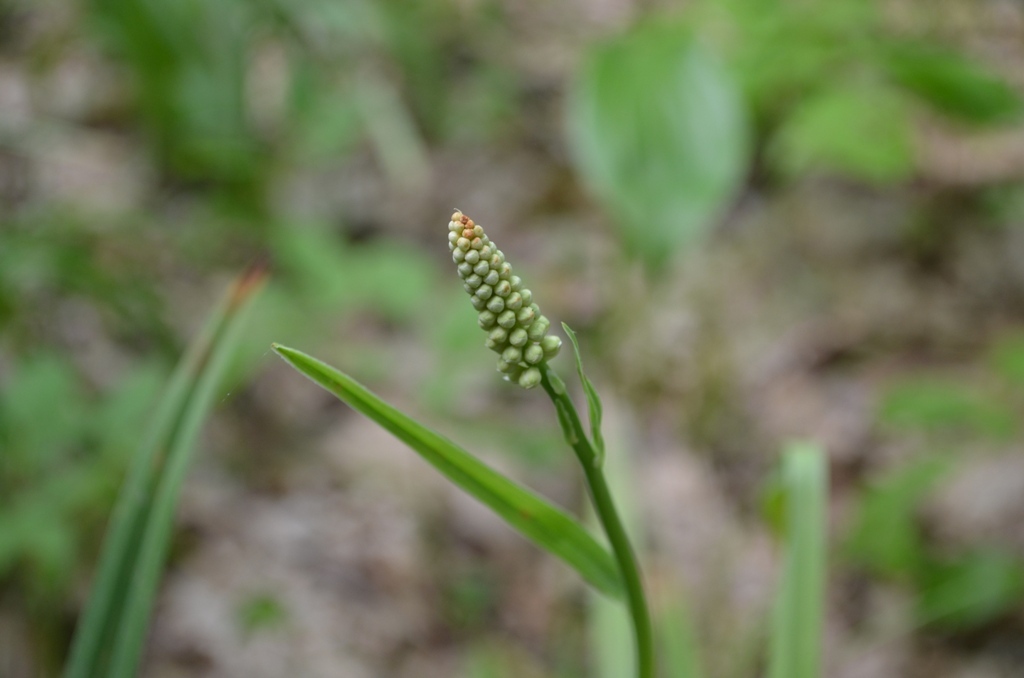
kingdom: Plantae
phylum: Tracheophyta
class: Liliopsida
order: Liliales
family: Melanthiaceae
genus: Amianthium
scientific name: Amianthium muscitoxicum
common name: Fly-poison
